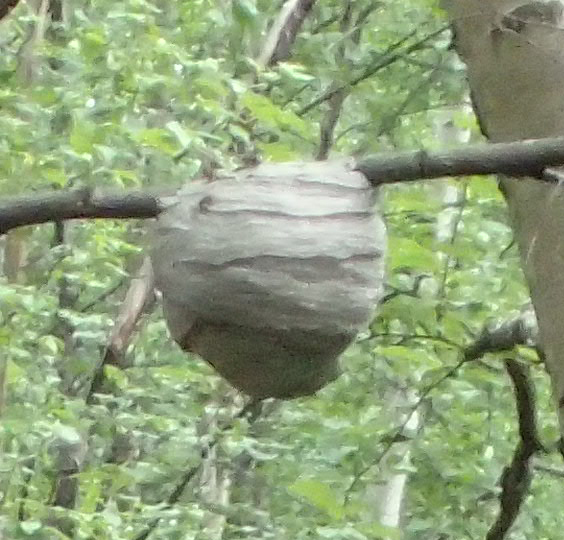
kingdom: Animalia
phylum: Arthropoda
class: Insecta
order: Hymenoptera
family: Vespidae
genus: Dolichovespula
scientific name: Dolichovespula
